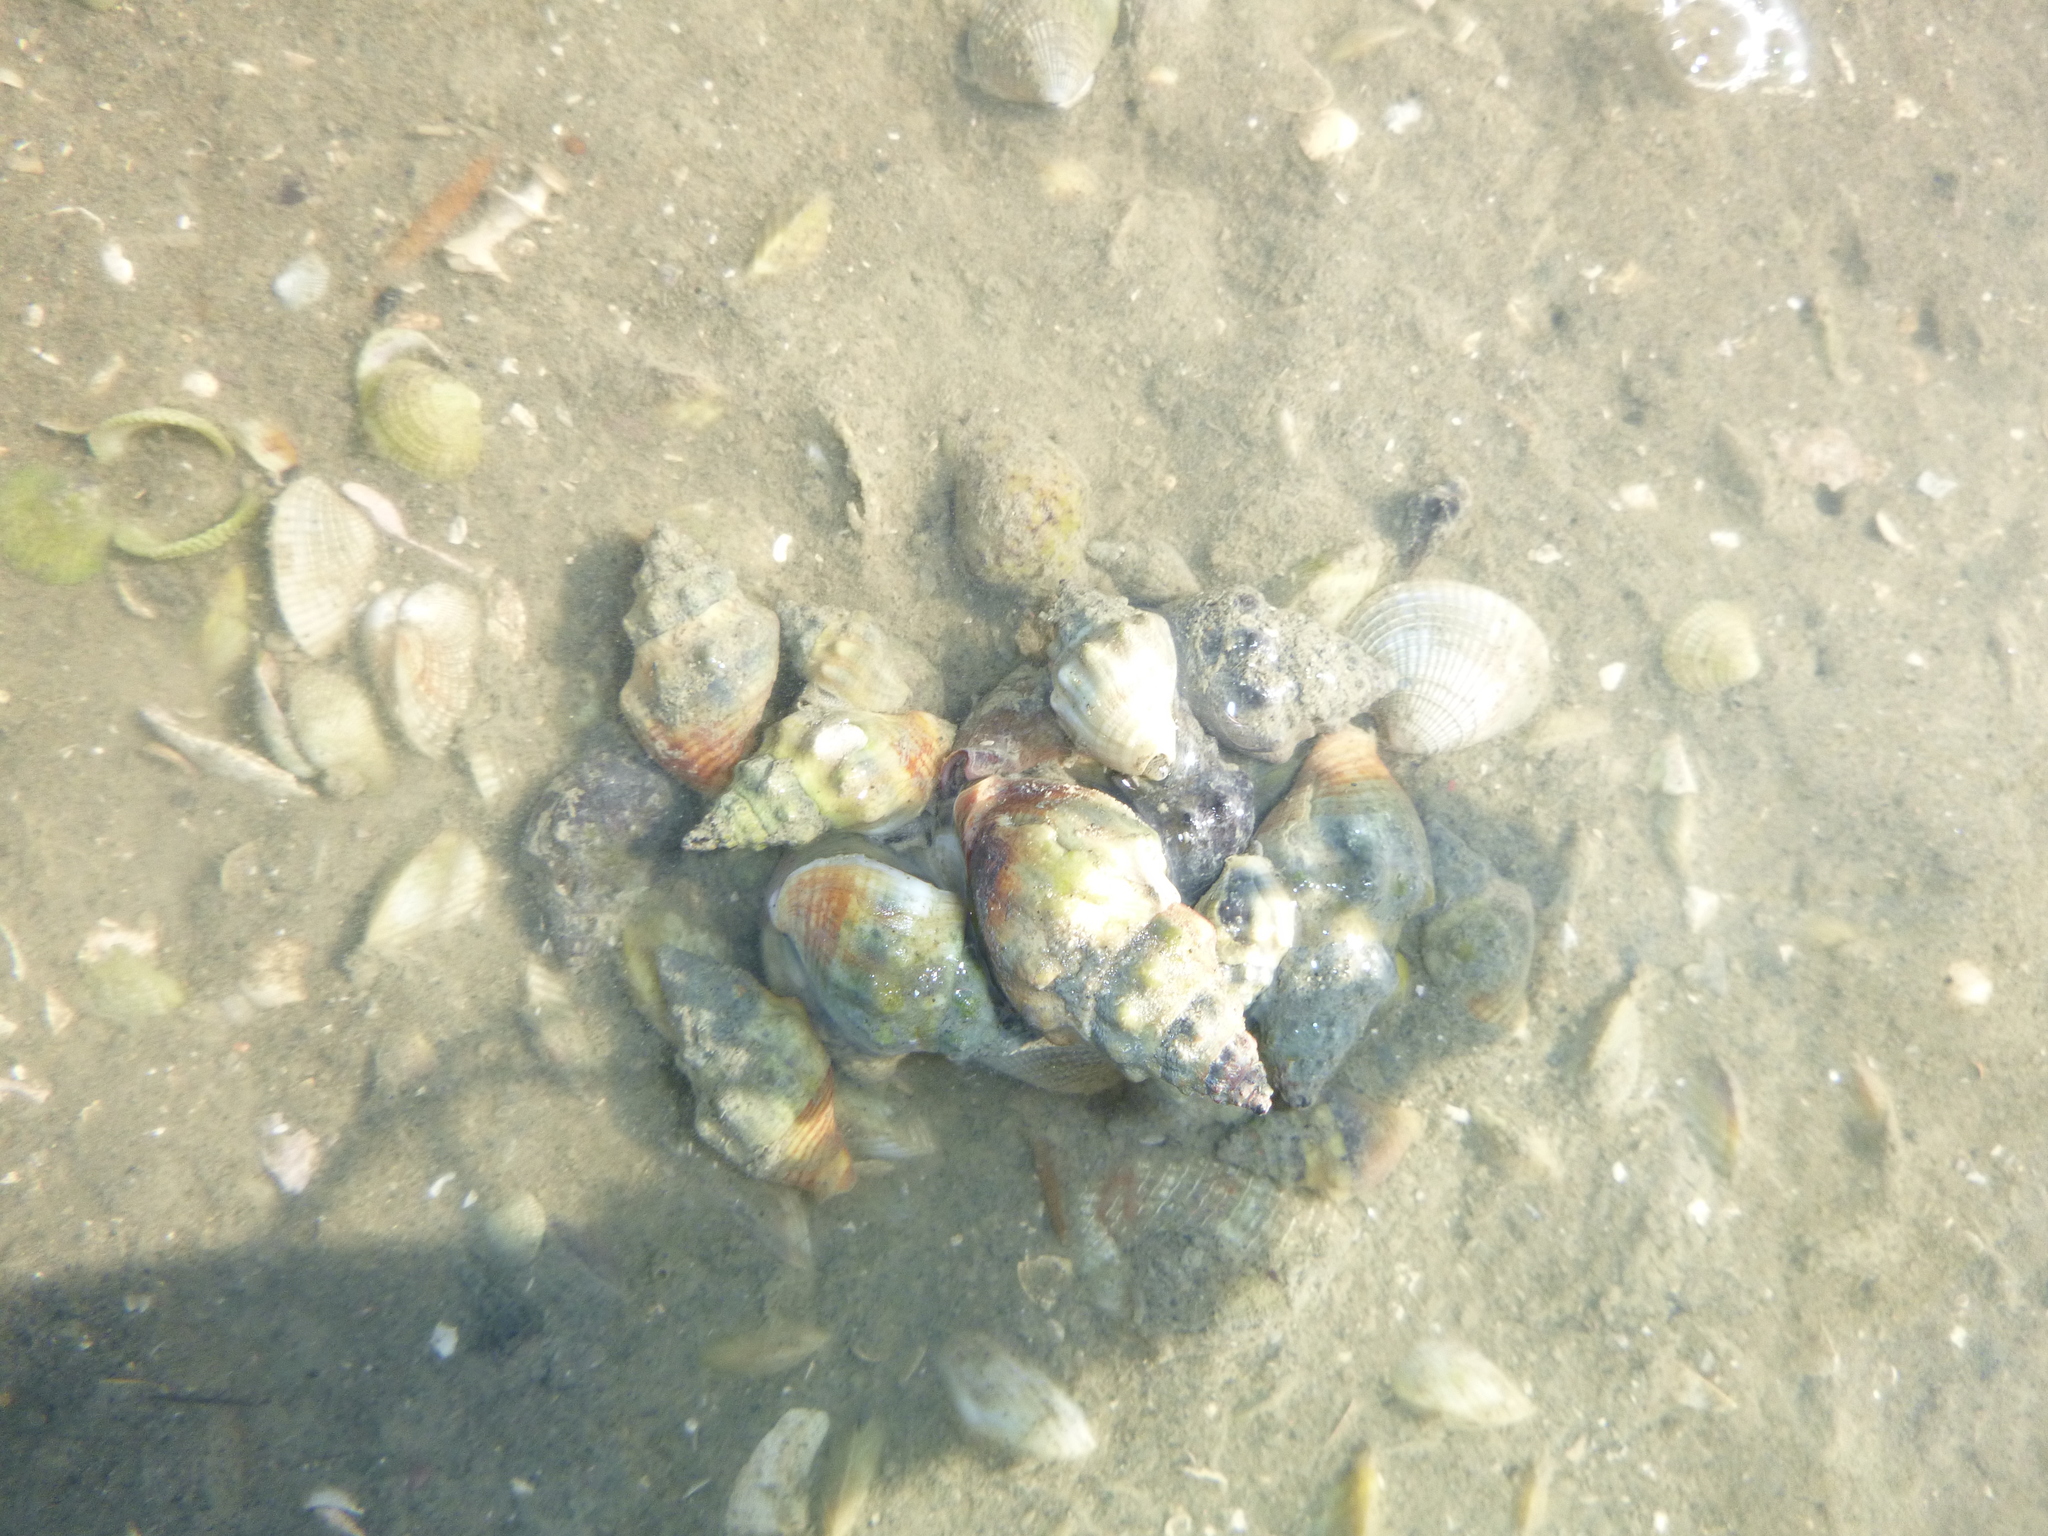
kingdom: Animalia
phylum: Mollusca
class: Gastropoda
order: Neogastropoda
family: Cominellidae
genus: Cominella
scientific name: Cominella glandiformis
